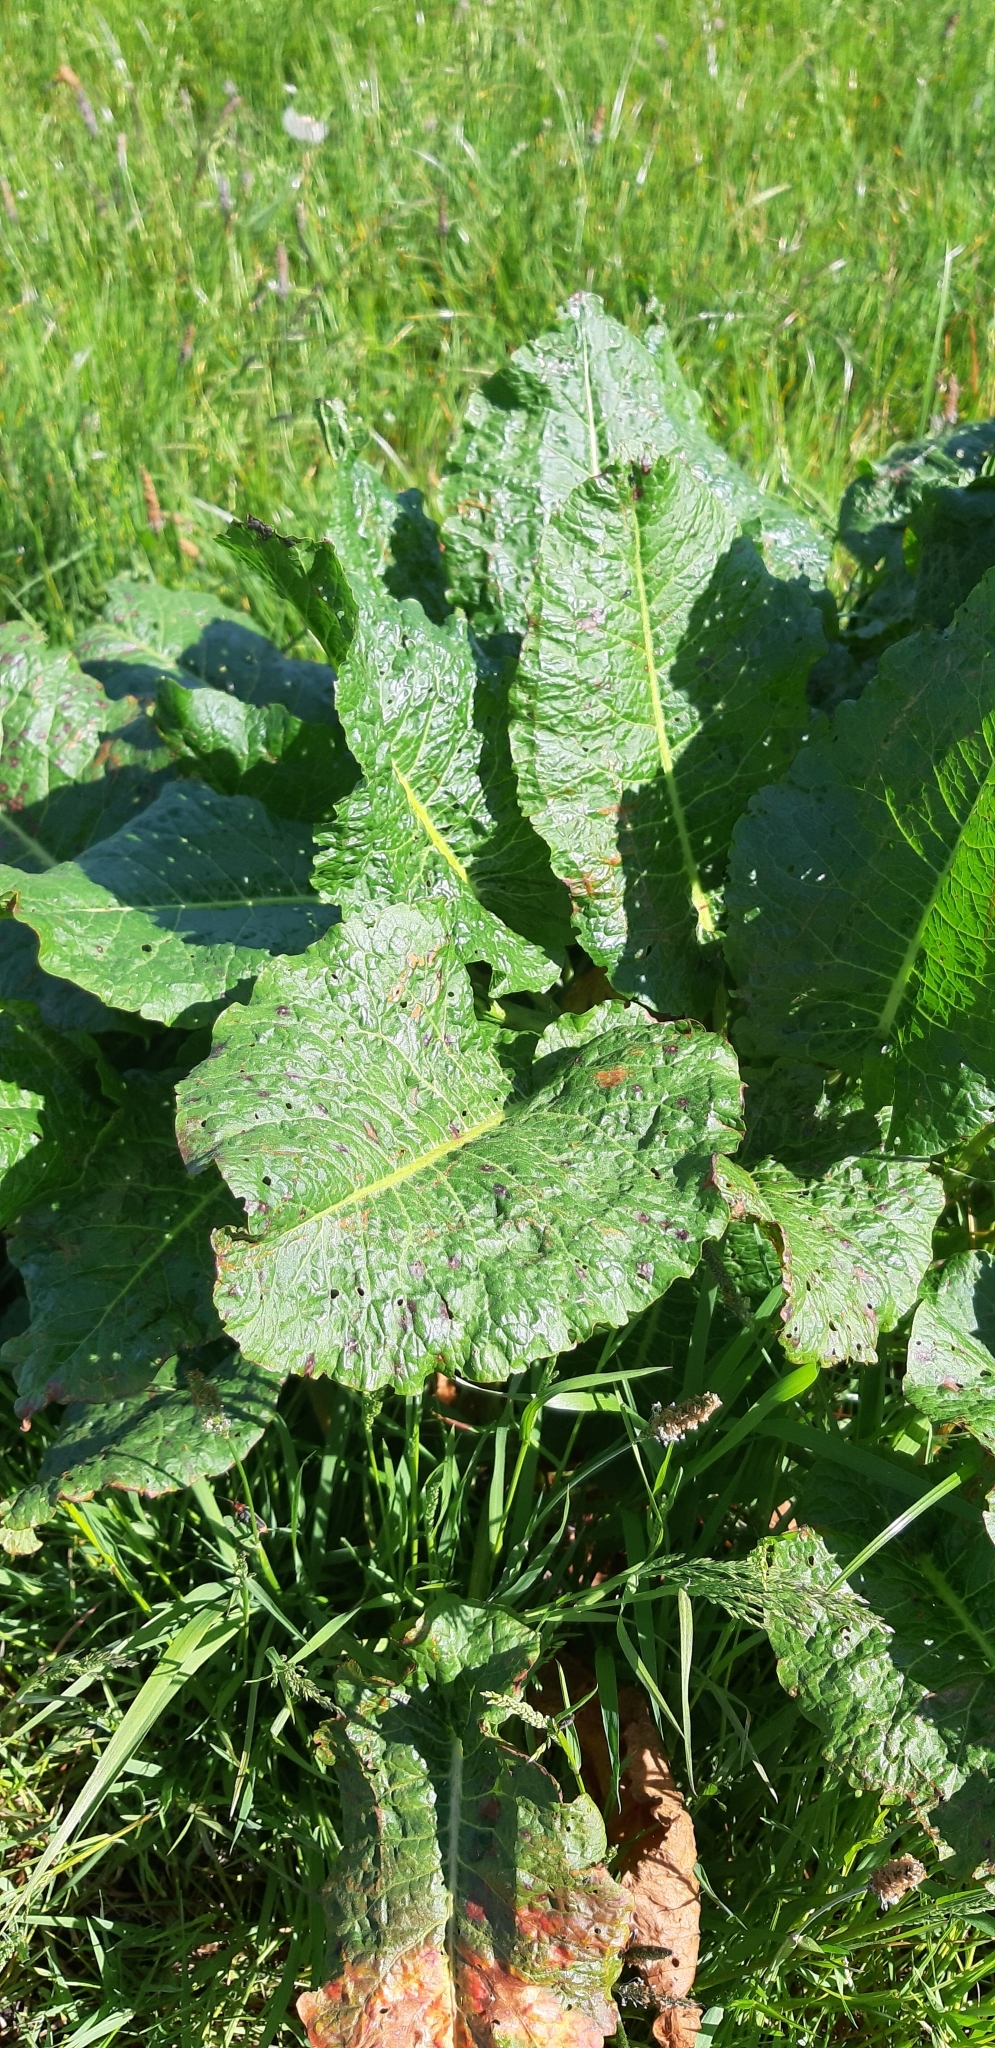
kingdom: Plantae
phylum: Tracheophyta
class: Magnoliopsida
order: Caryophyllales
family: Polygonaceae
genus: Rumex
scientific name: Rumex obtusifolius
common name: Bitter dock
